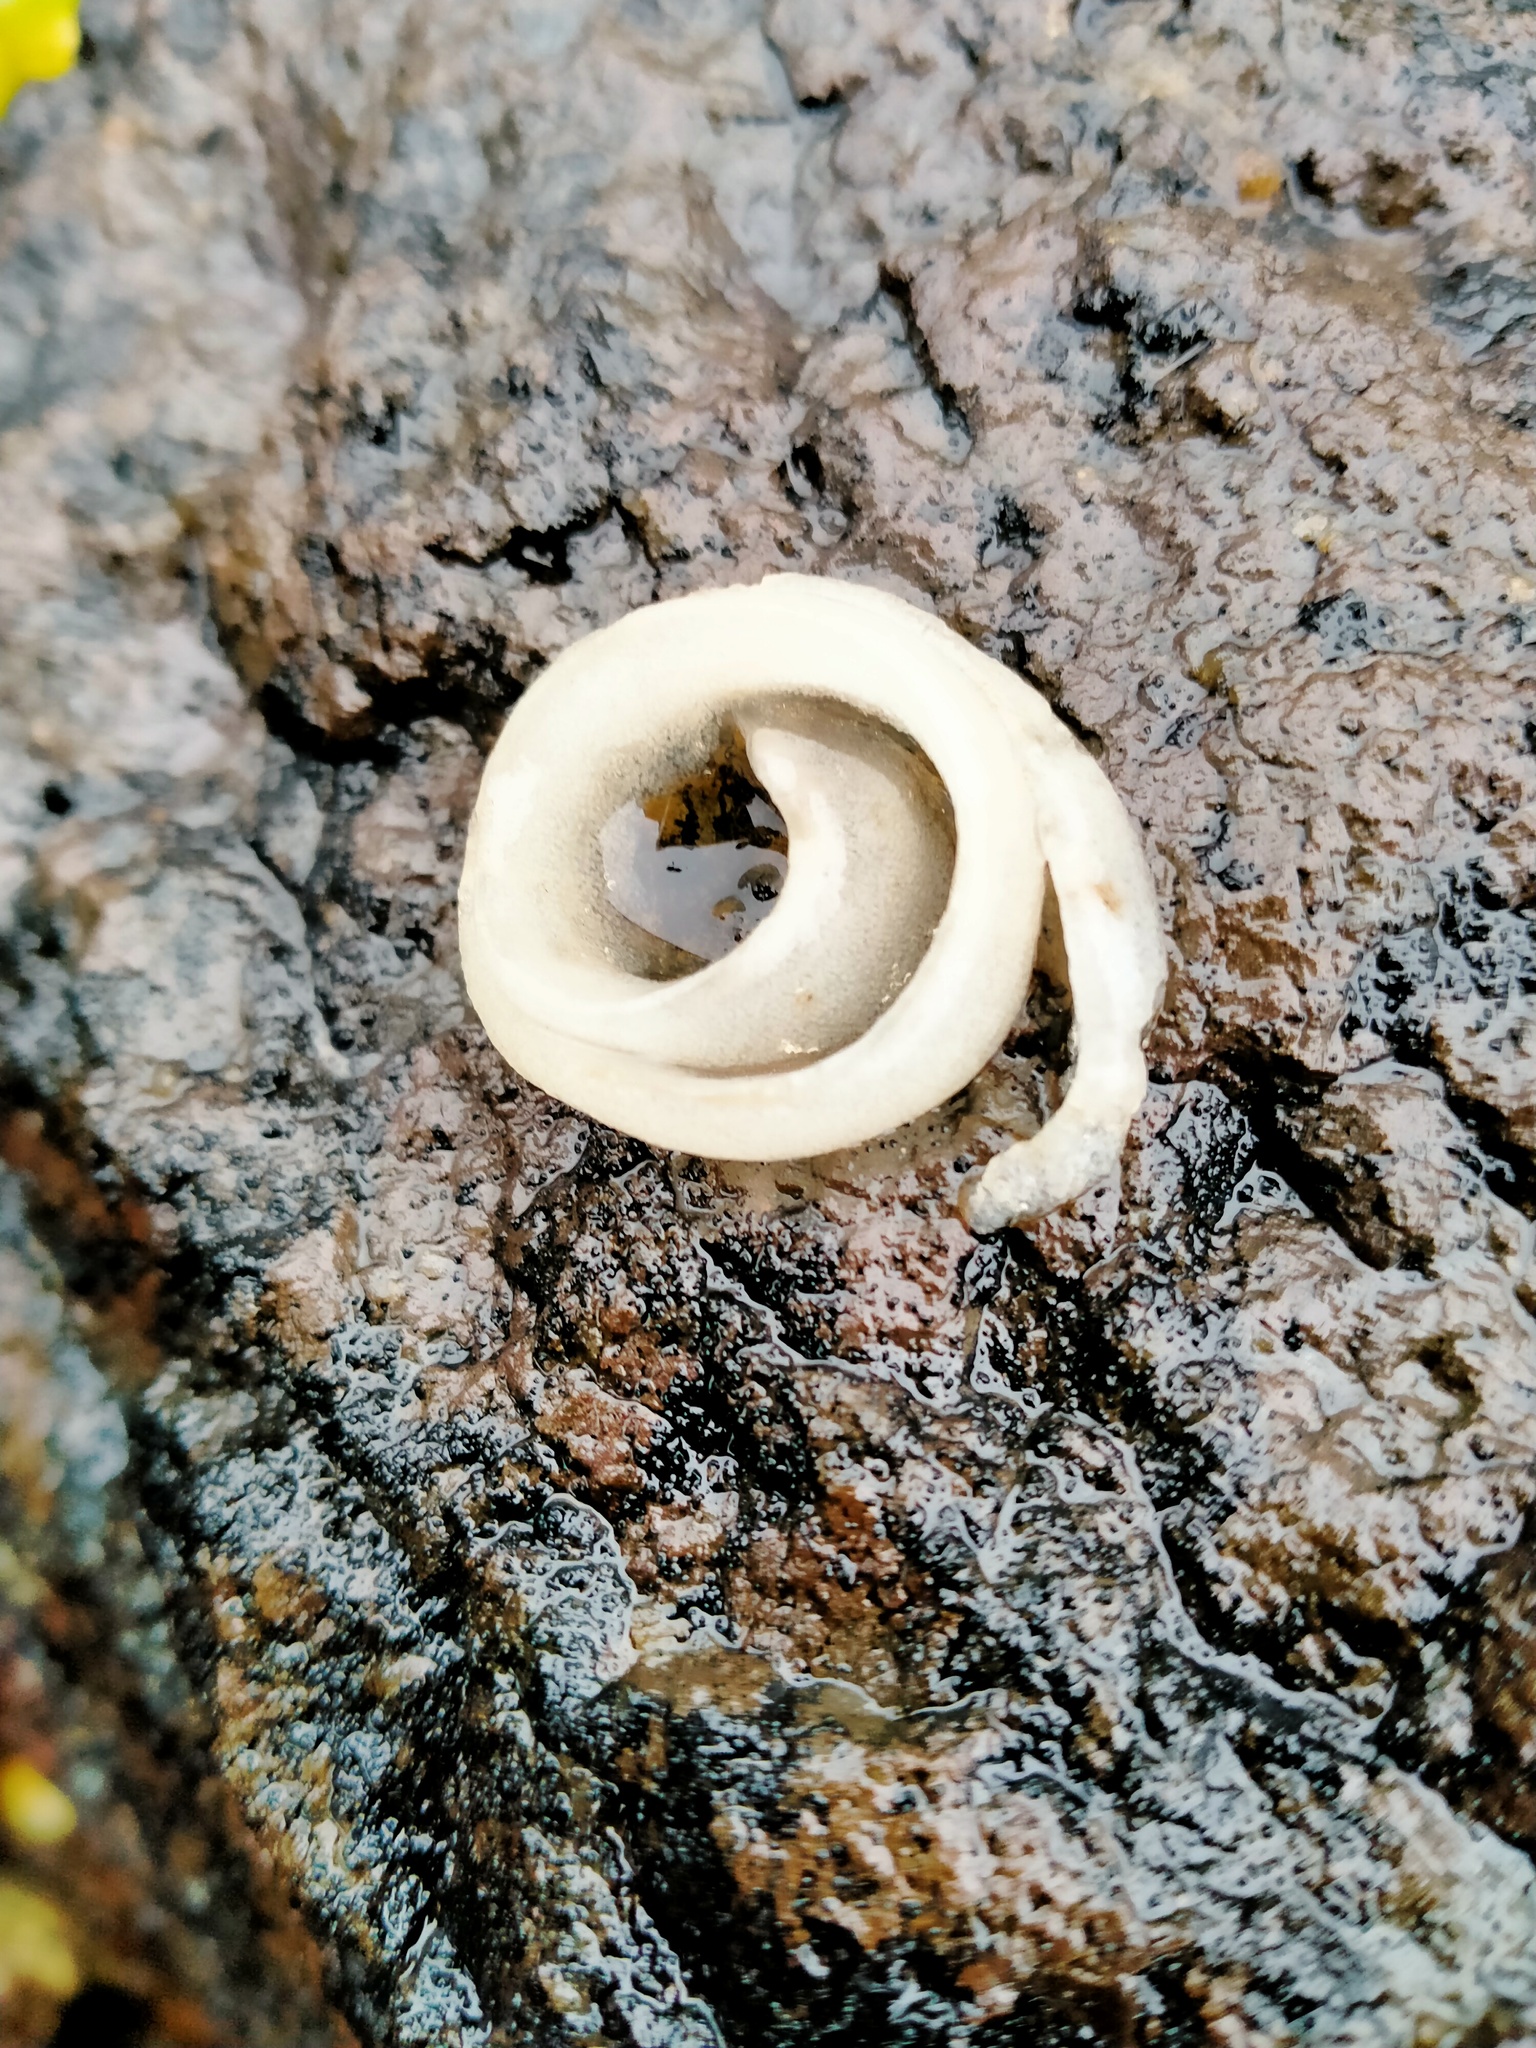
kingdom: Animalia
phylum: Mollusca
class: Gastropoda
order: Siphonariida
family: Siphonariidae
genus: Benhamina
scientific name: Benhamina obliquata
